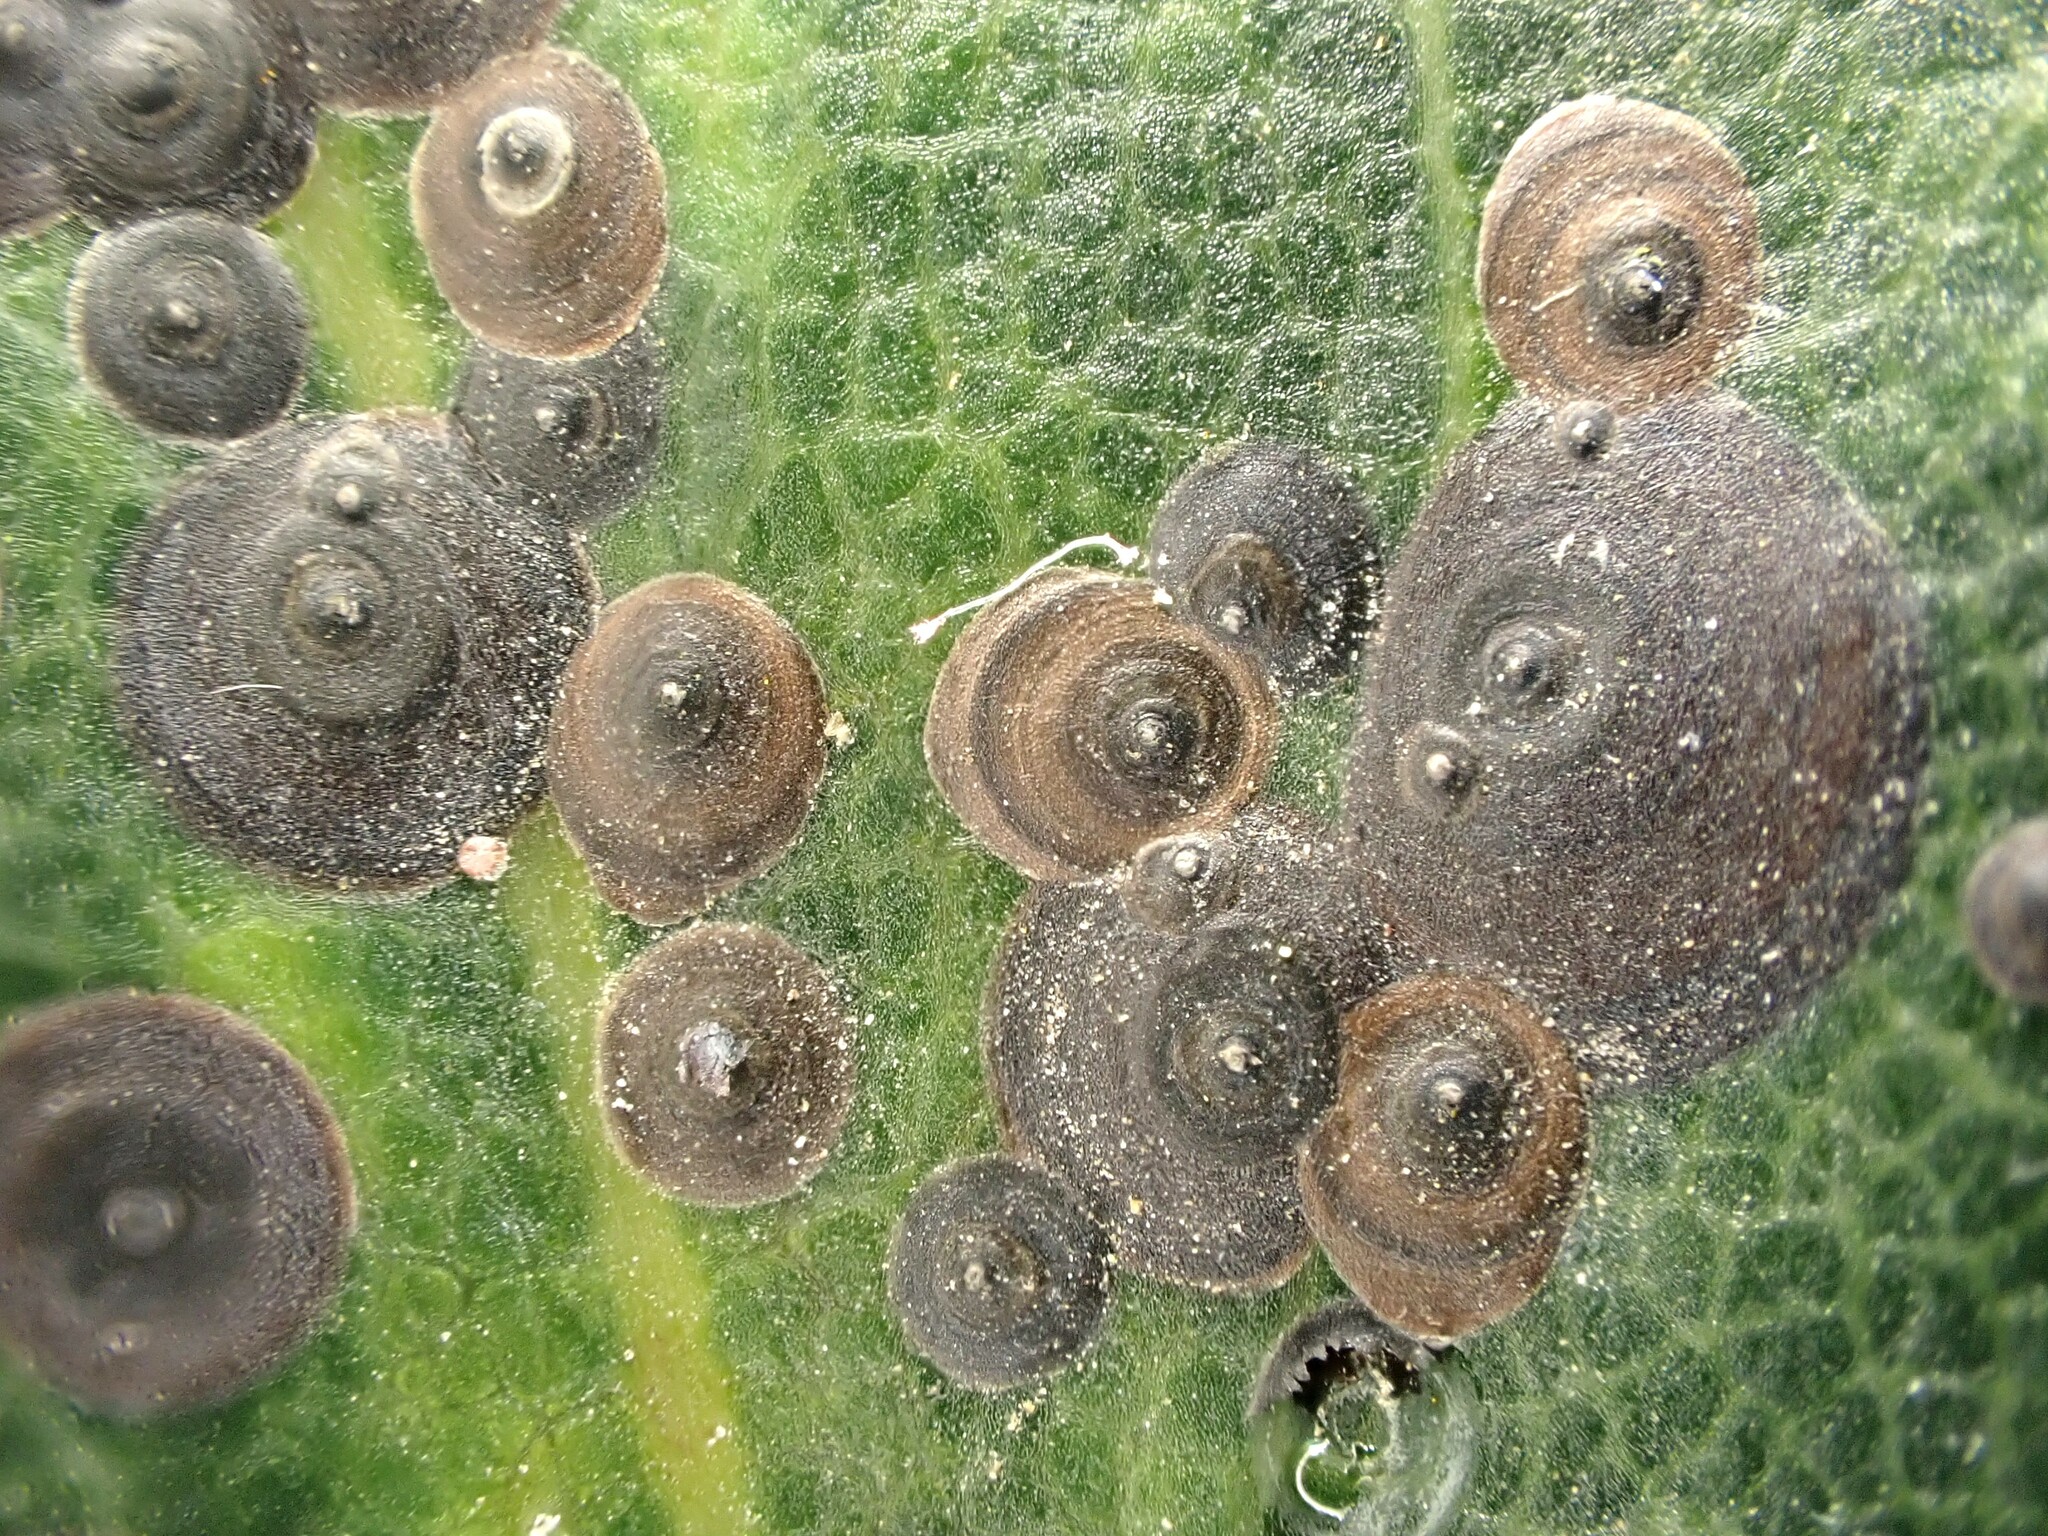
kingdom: Animalia
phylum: Arthropoda
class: Insecta
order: Hemiptera
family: Diaspididae
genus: Lindingaspis
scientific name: Lindingaspis rossi
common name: Araucaria black scale
